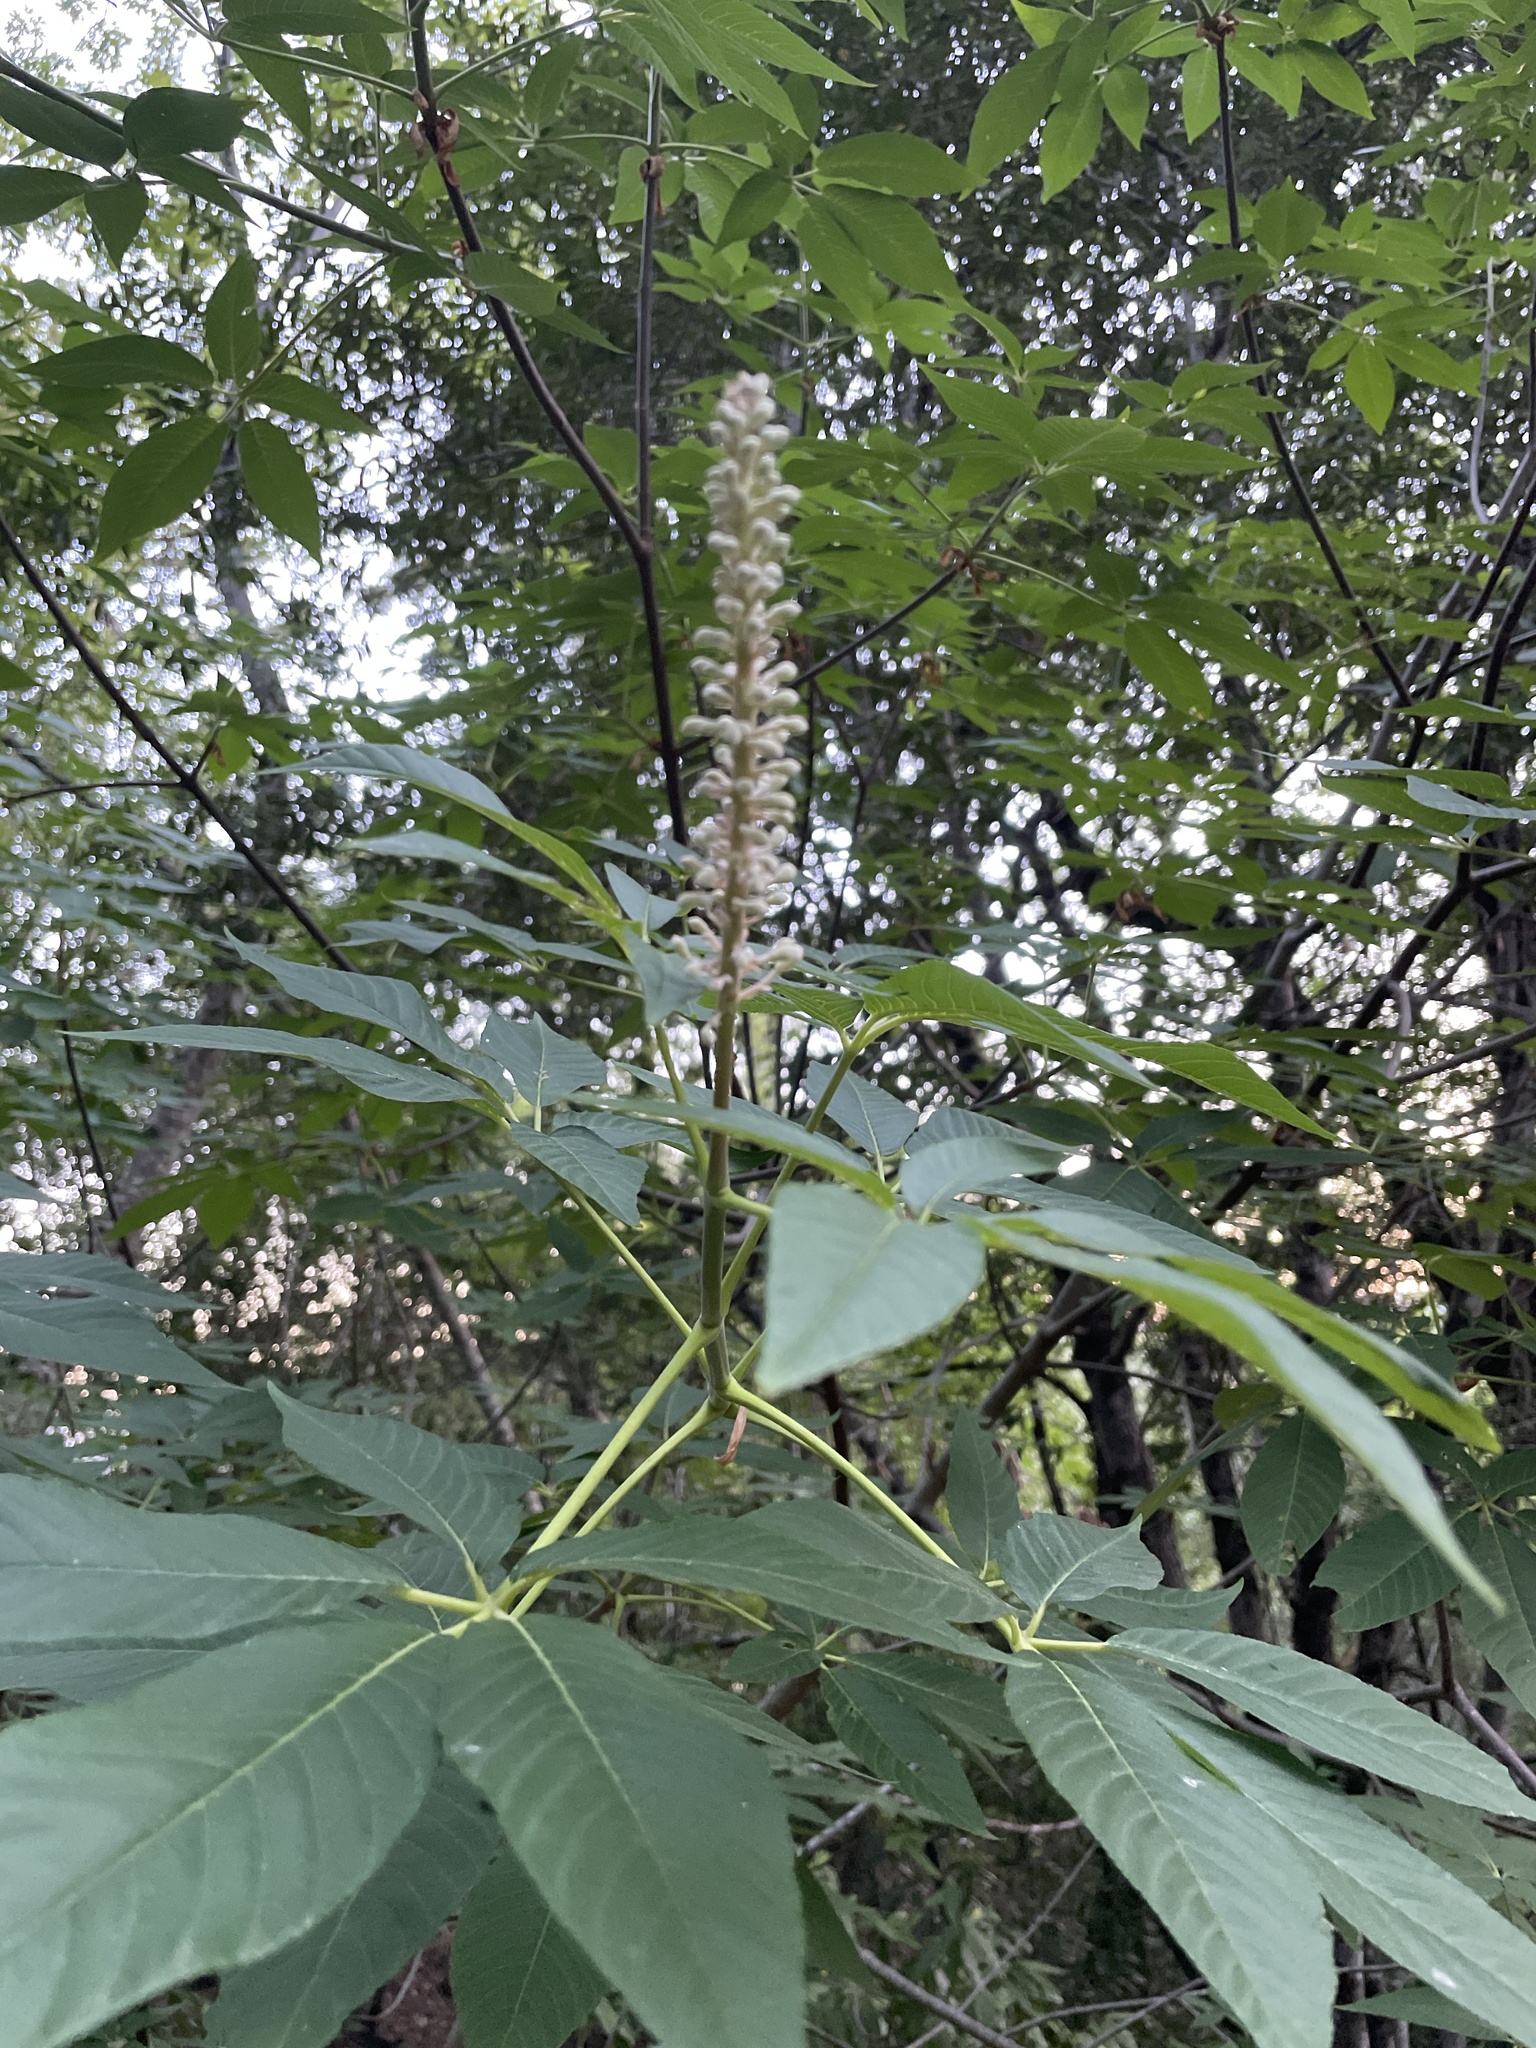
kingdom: Plantae
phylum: Tracheophyta
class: Magnoliopsida
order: Sapindales
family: Sapindaceae
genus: Aesculus
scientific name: Aesculus californica
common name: California buckeye
